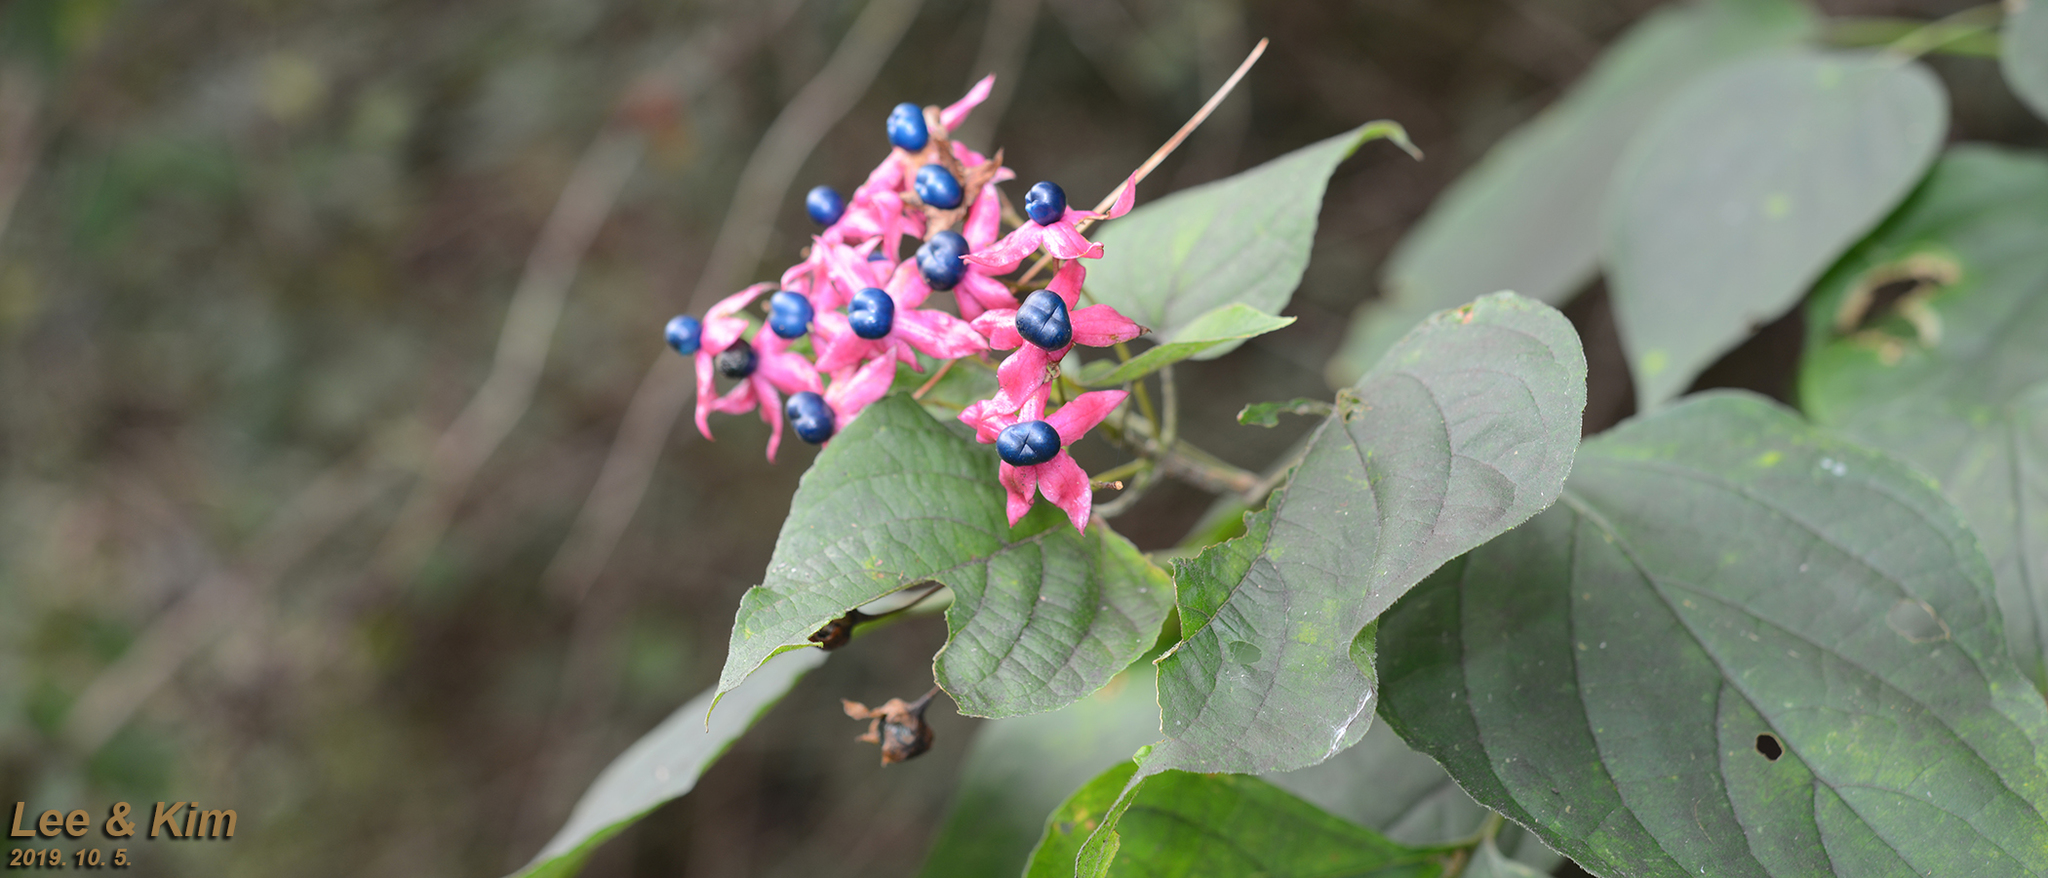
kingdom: Plantae
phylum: Tracheophyta
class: Magnoliopsida
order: Lamiales
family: Lamiaceae
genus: Clerodendrum
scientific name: Clerodendrum trichotomum
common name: Harlequin glorybower
